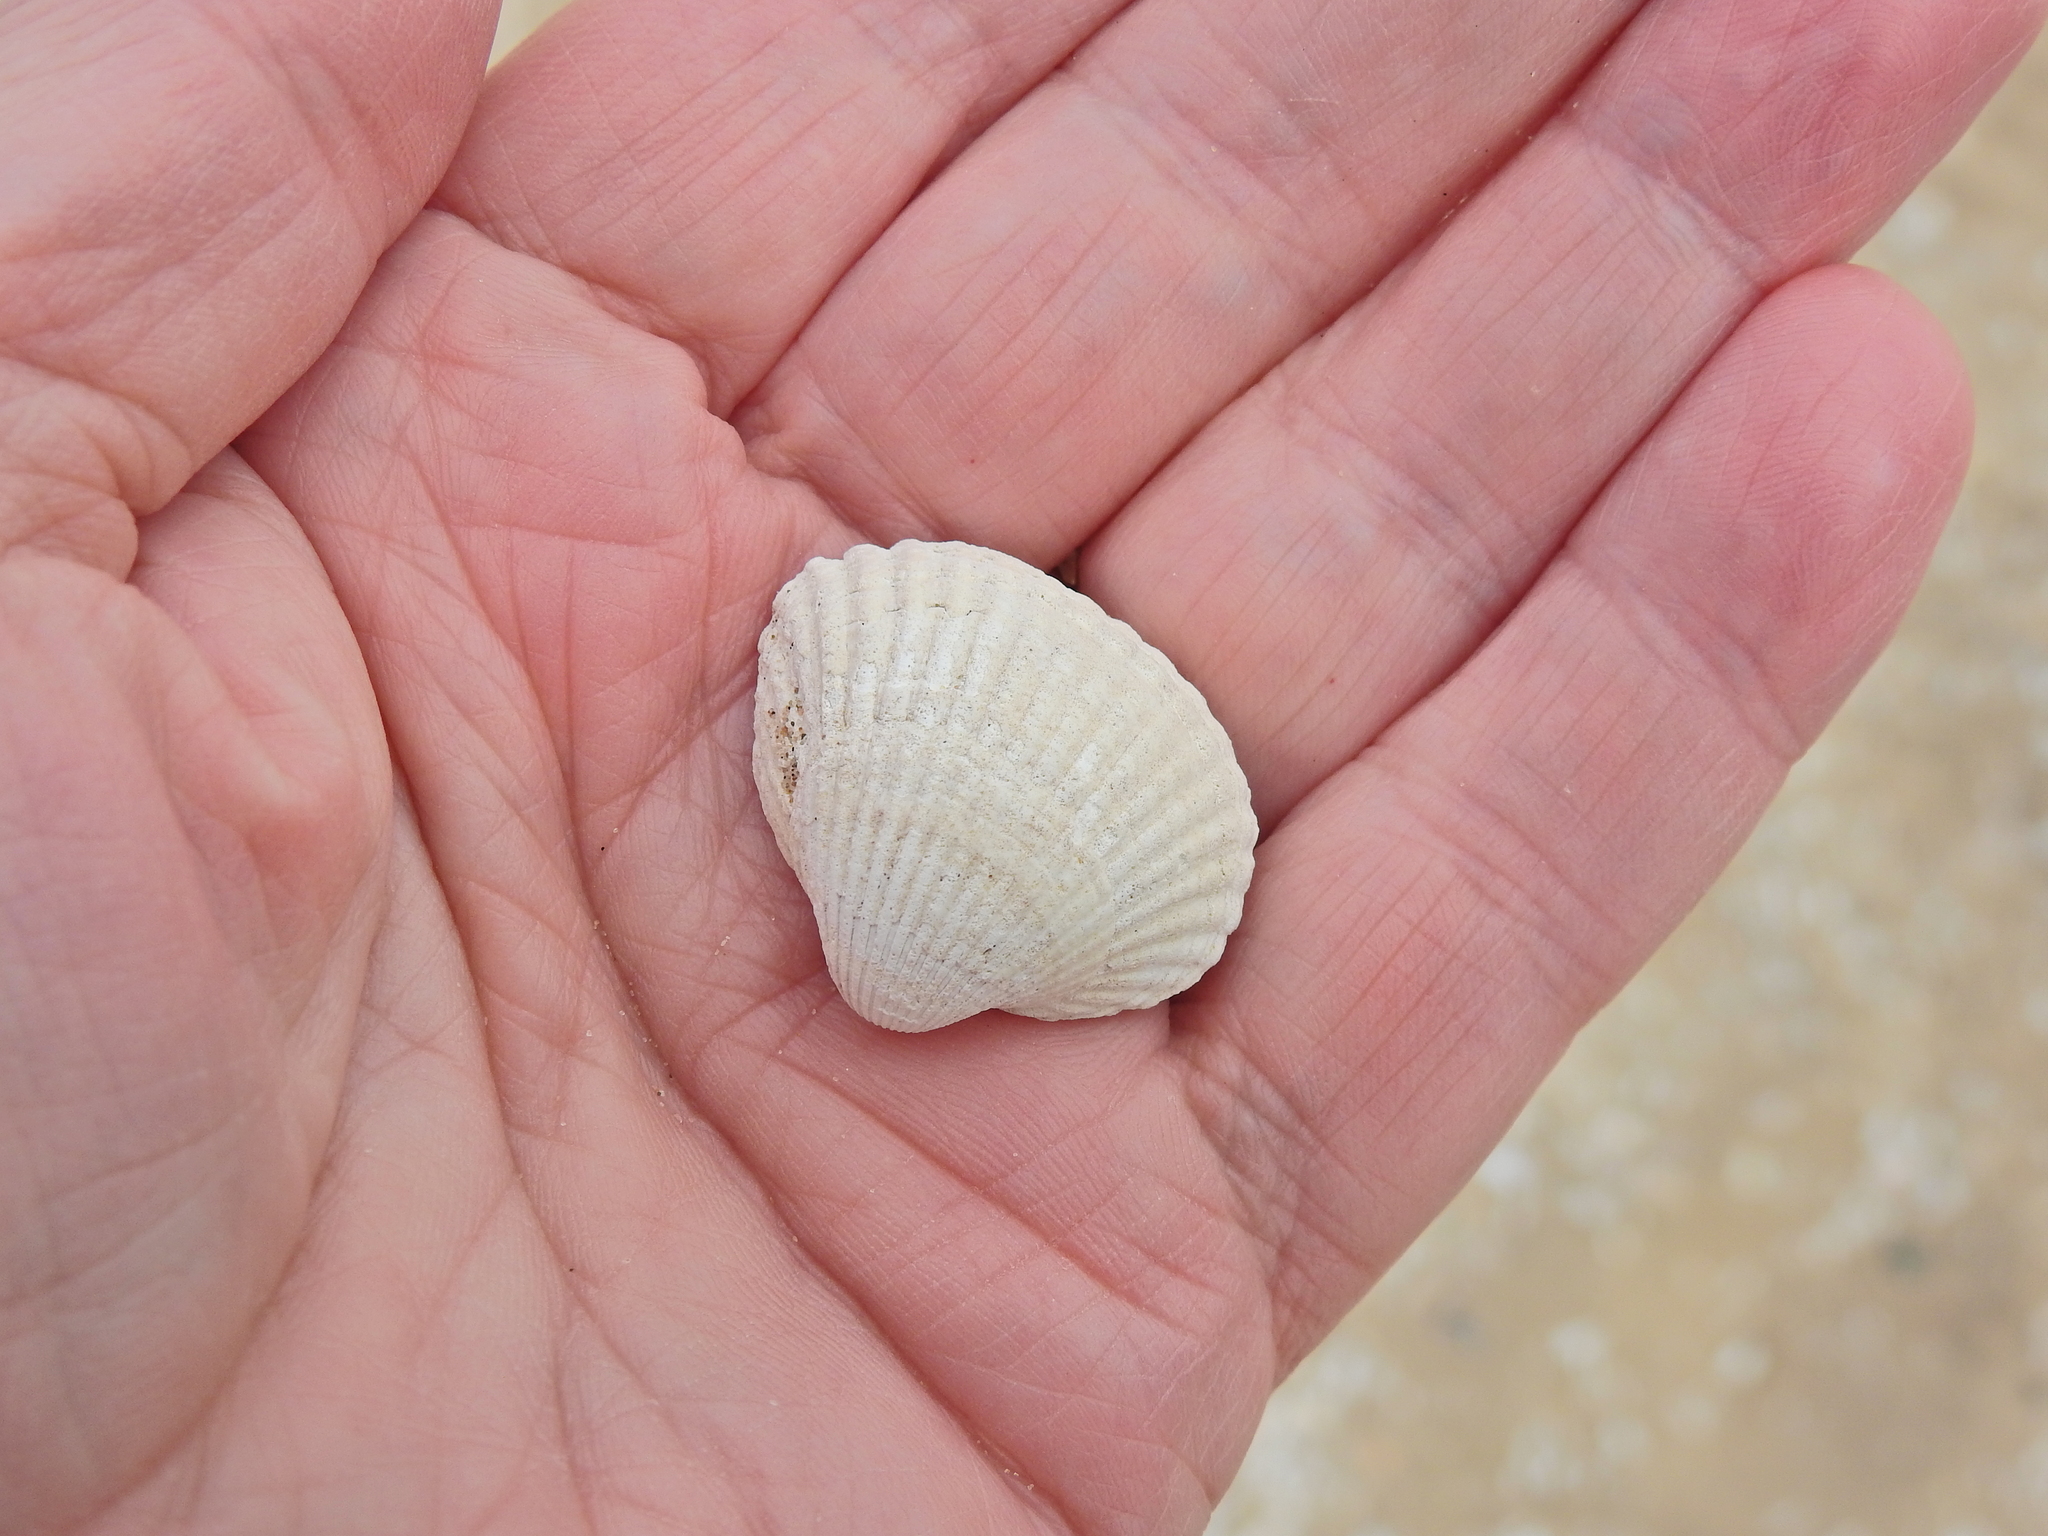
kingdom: Animalia
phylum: Mollusca
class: Bivalvia
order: Cardiida
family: Cardiidae
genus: Cerastoderma
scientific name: Cerastoderma edule
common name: Common cockle
